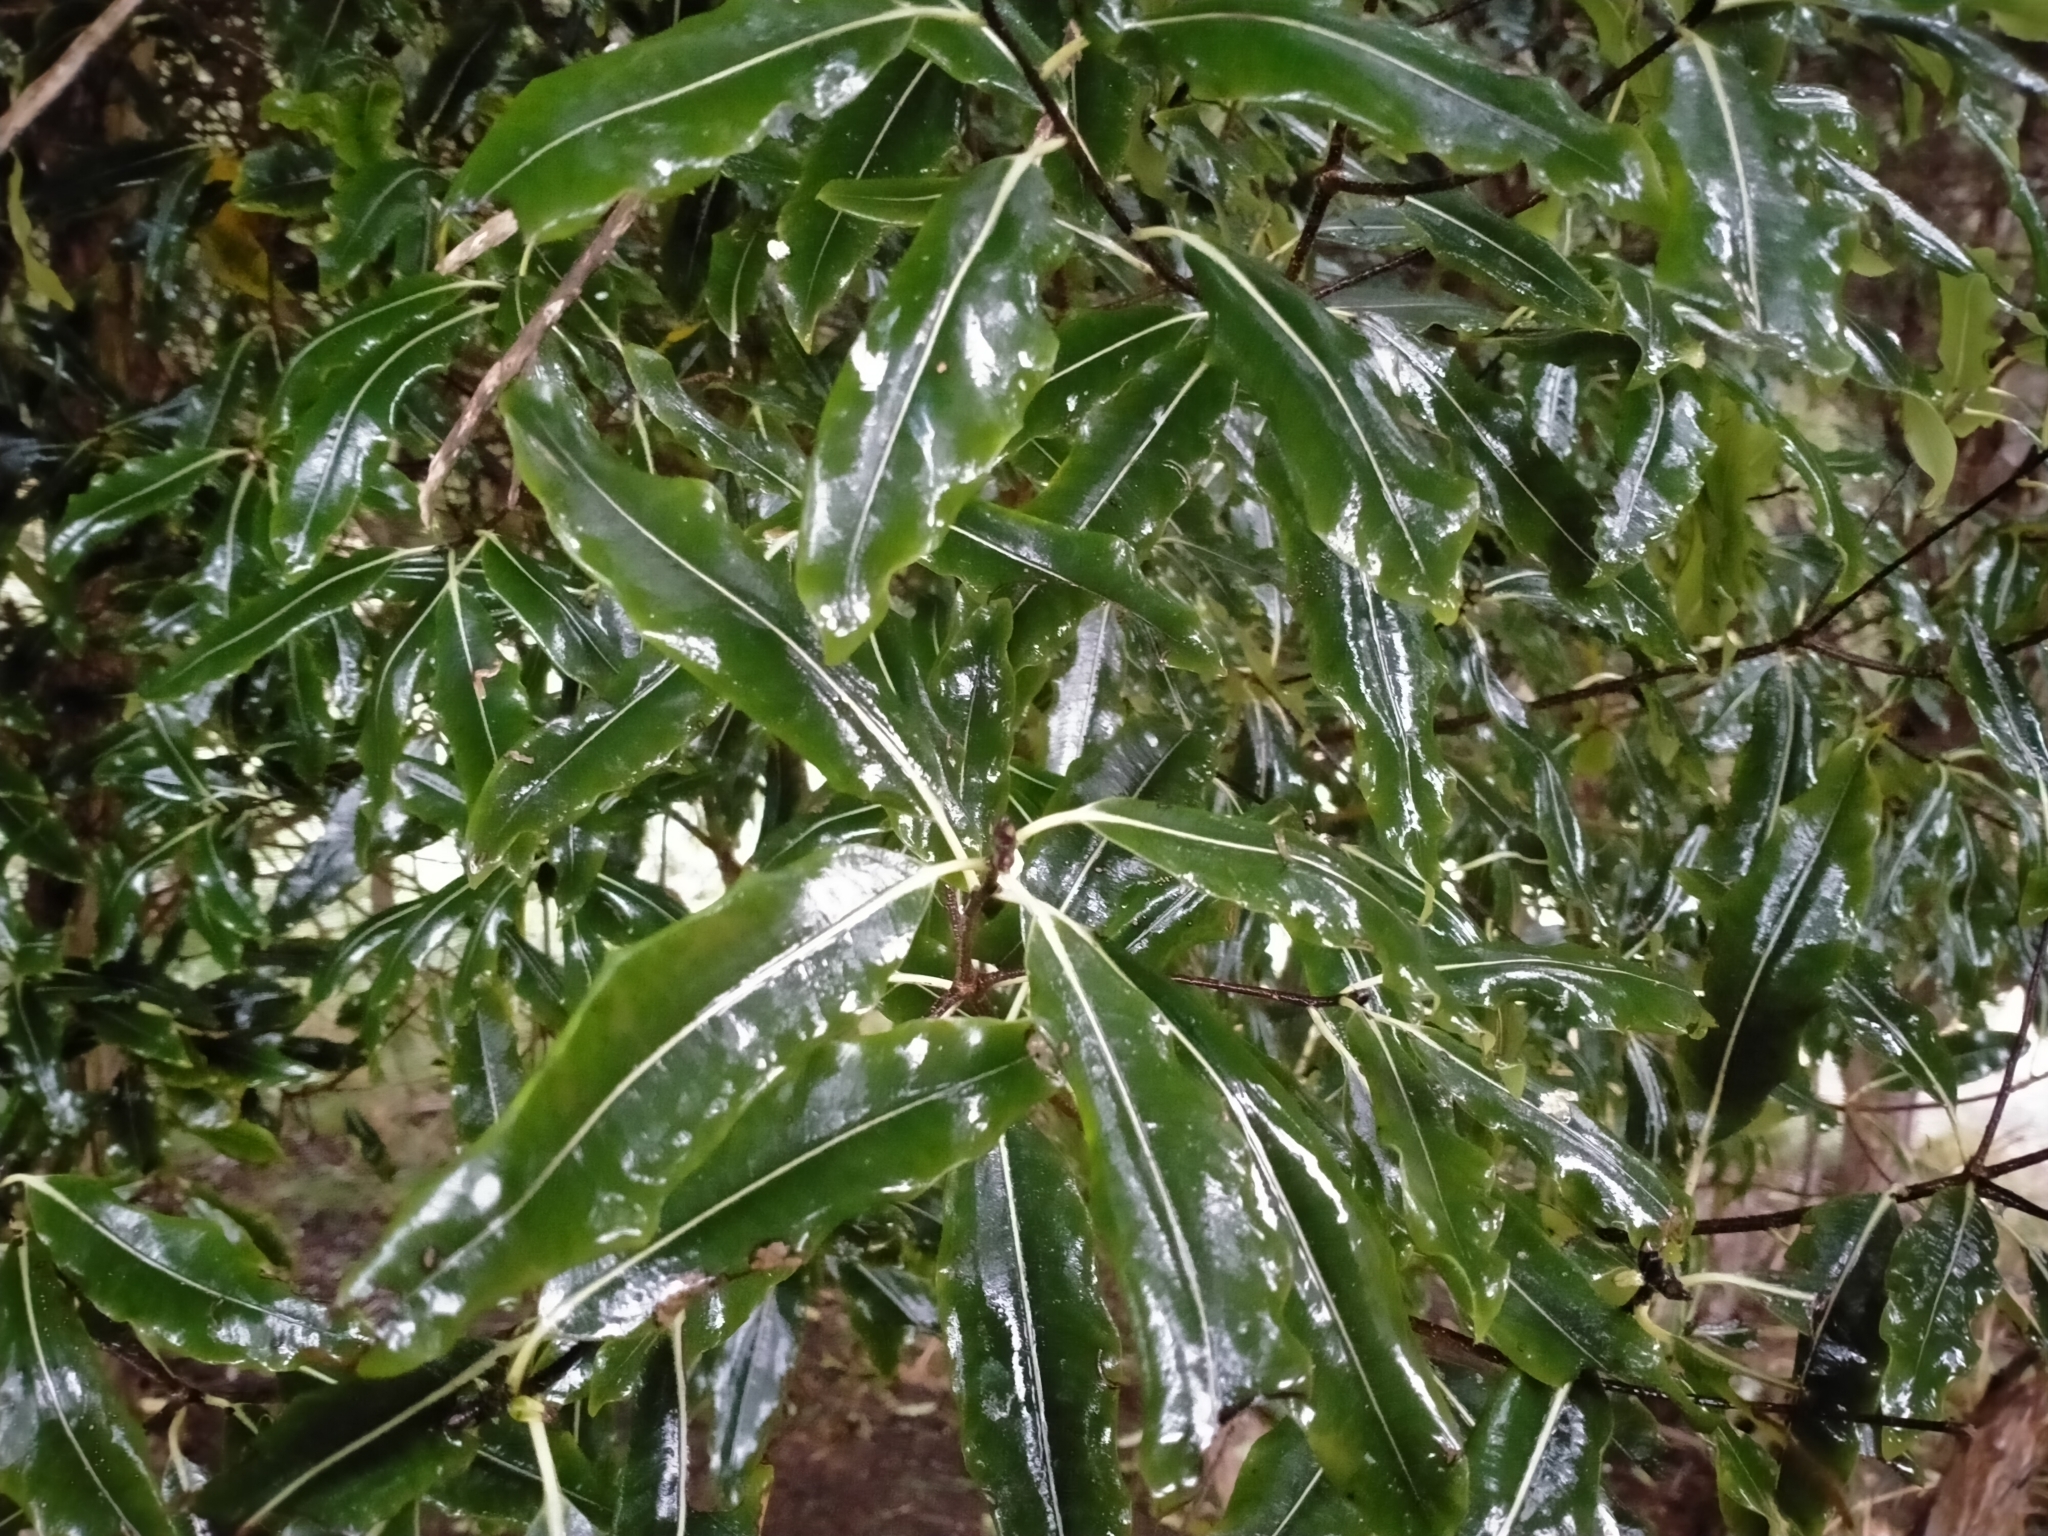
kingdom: Plantae
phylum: Tracheophyta
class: Magnoliopsida
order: Apiales
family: Pittosporaceae
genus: Pittosporum
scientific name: Pittosporum eugenioides
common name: Lemonwood
